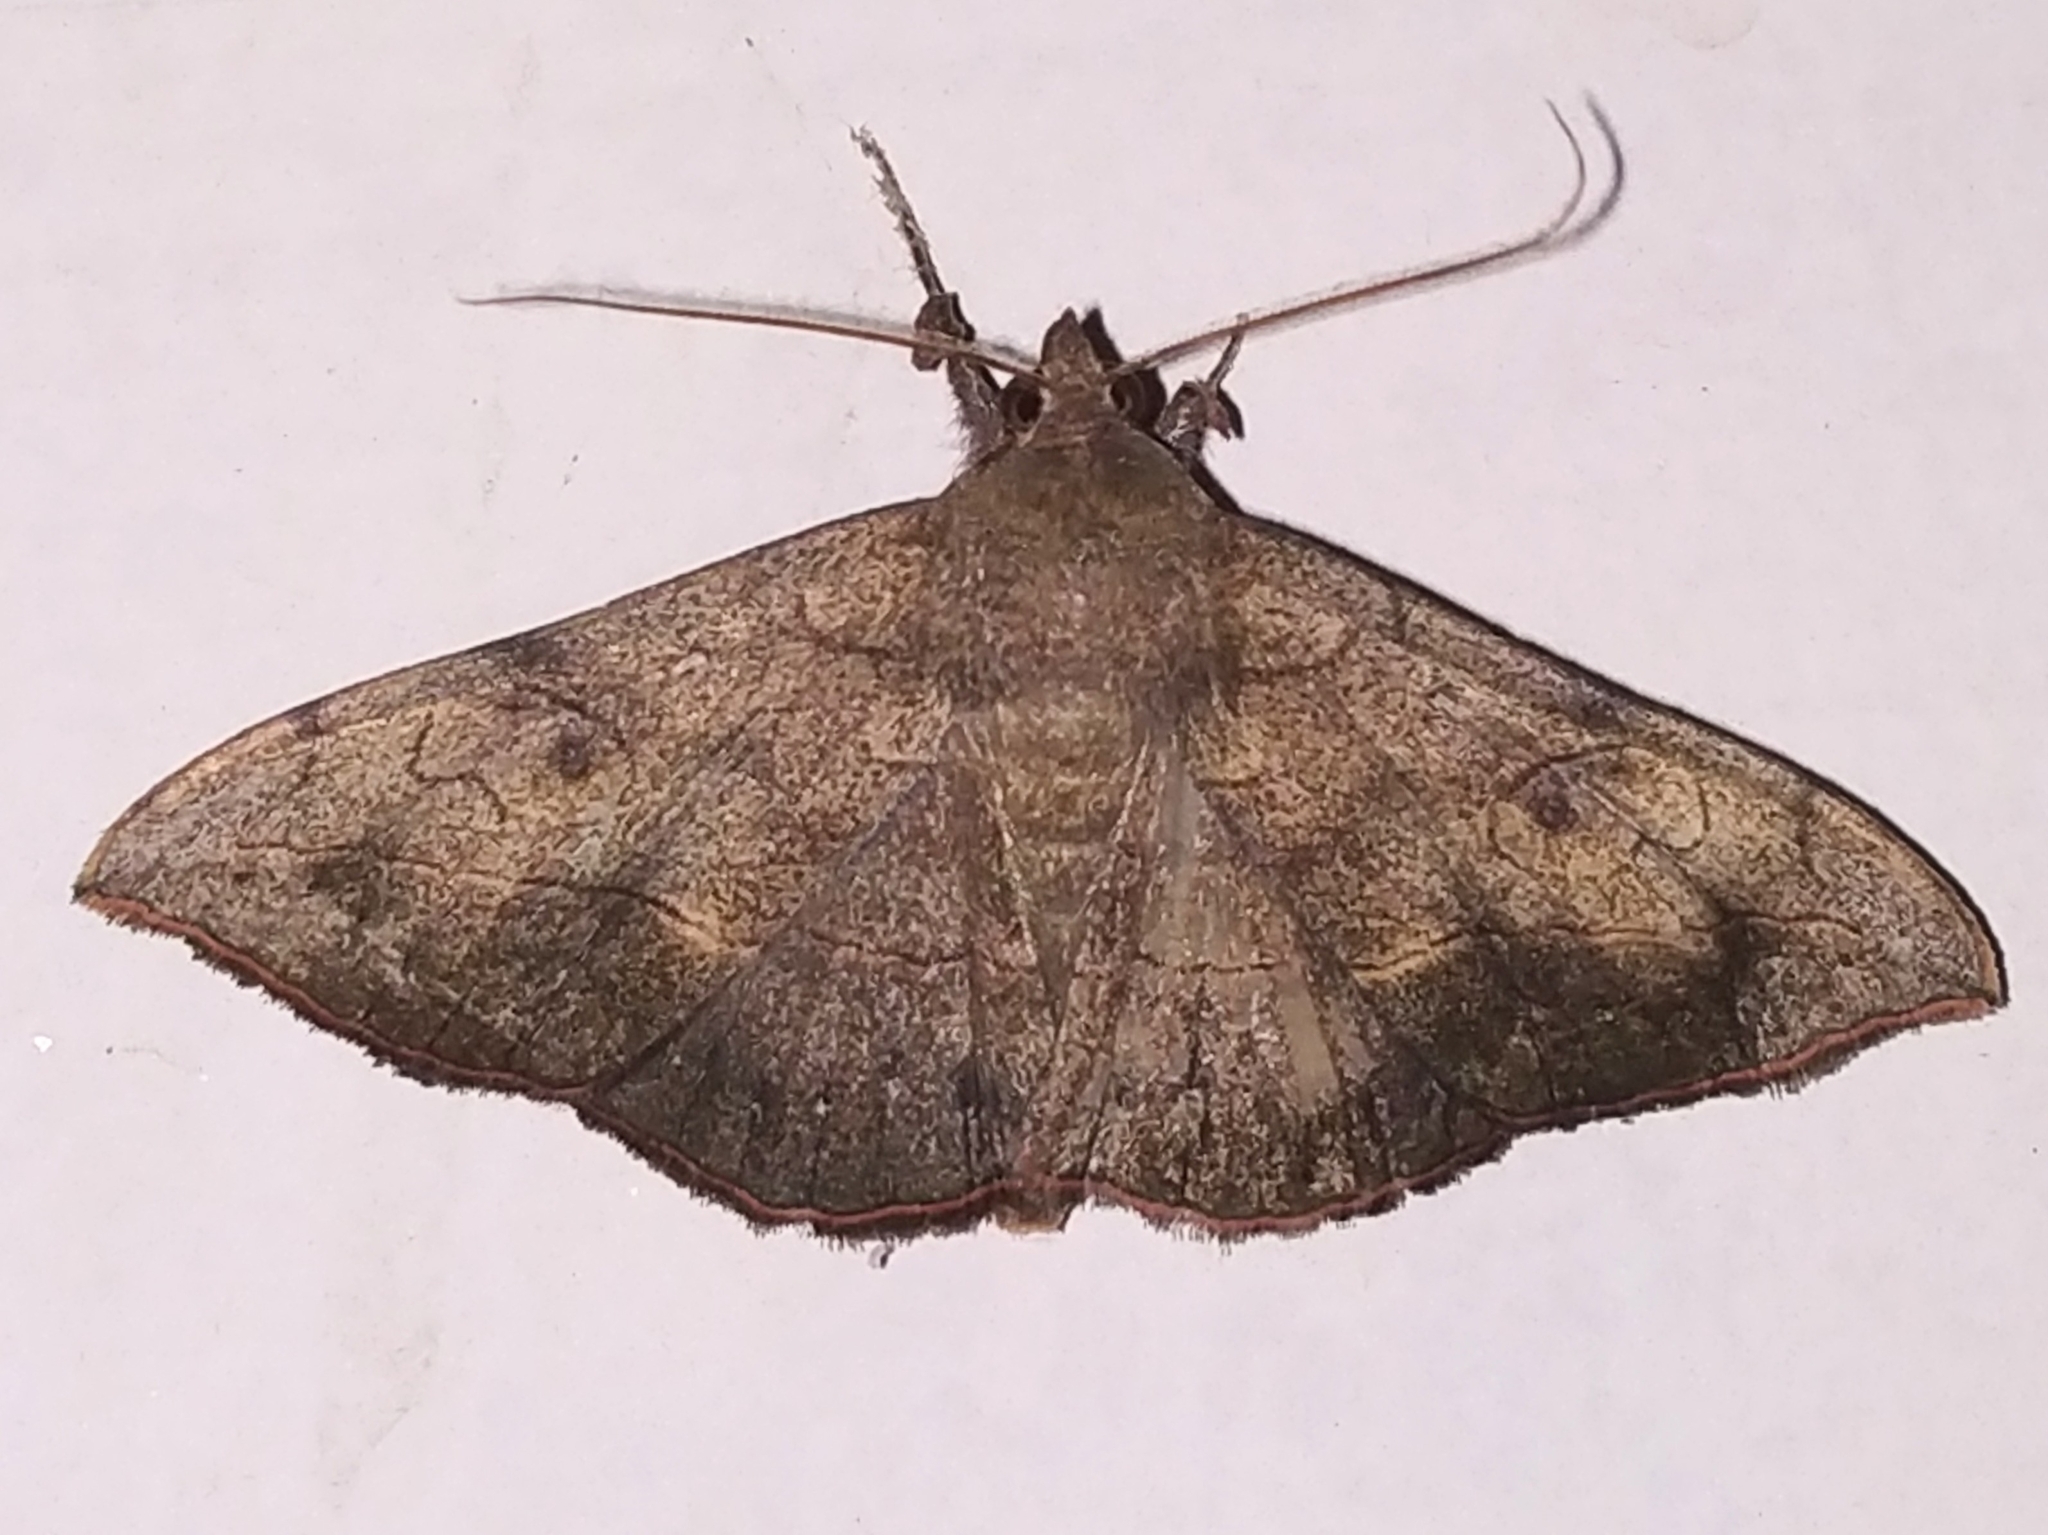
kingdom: Animalia
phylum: Arthropoda
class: Insecta
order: Lepidoptera
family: Erebidae
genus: Anticarsia
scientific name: Anticarsia irrorata
